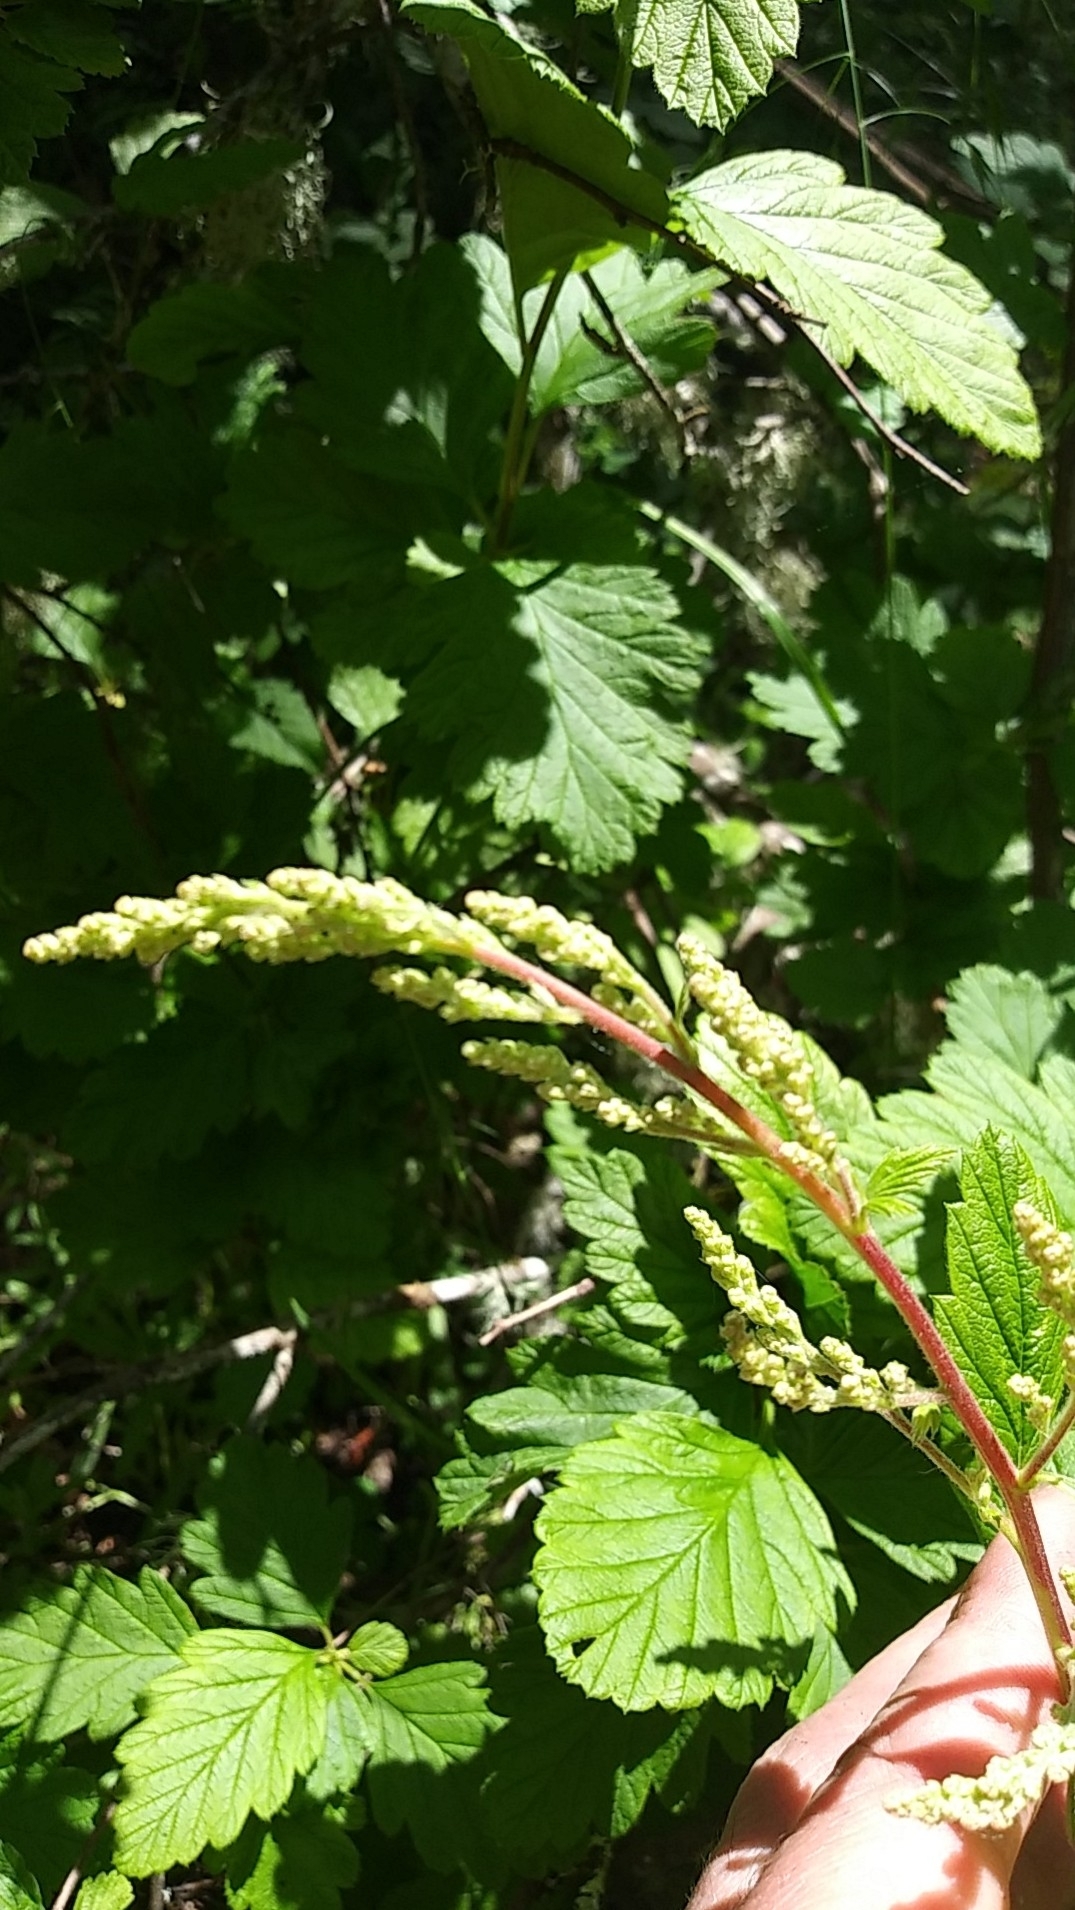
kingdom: Plantae
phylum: Tracheophyta
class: Magnoliopsida
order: Rosales
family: Rosaceae
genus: Holodiscus
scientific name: Holodiscus discolor
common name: Oceanspray
